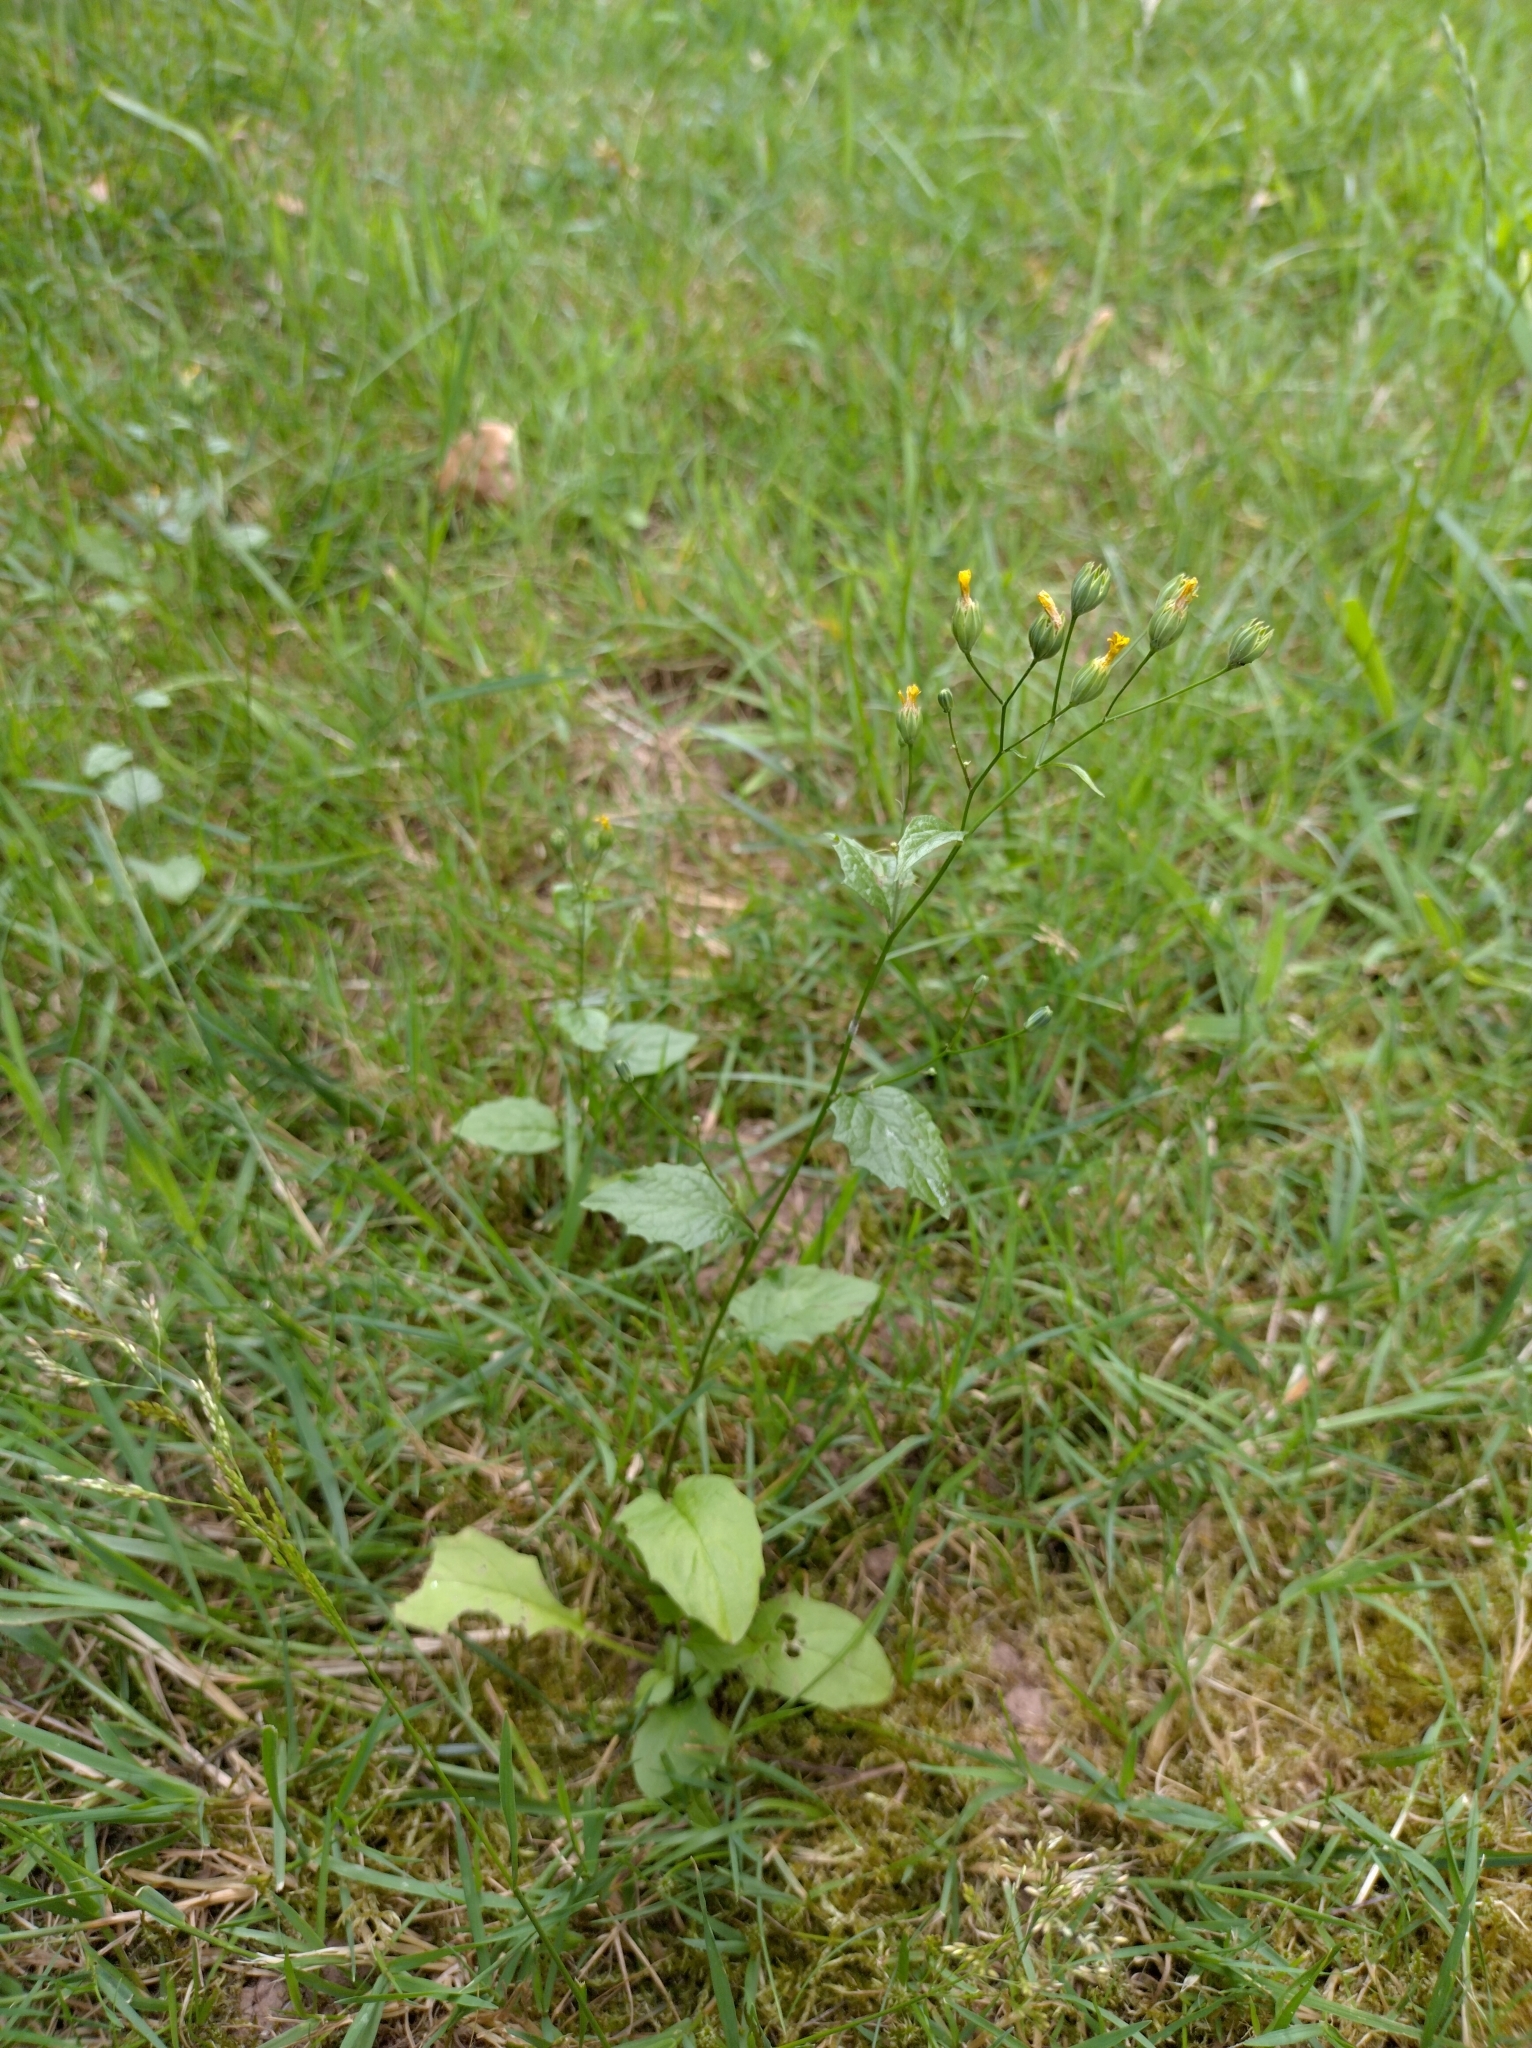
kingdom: Plantae
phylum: Tracheophyta
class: Magnoliopsida
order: Asterales
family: Asteraceae
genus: Lapsana
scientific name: Lapsana communis
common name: Nipplewort
